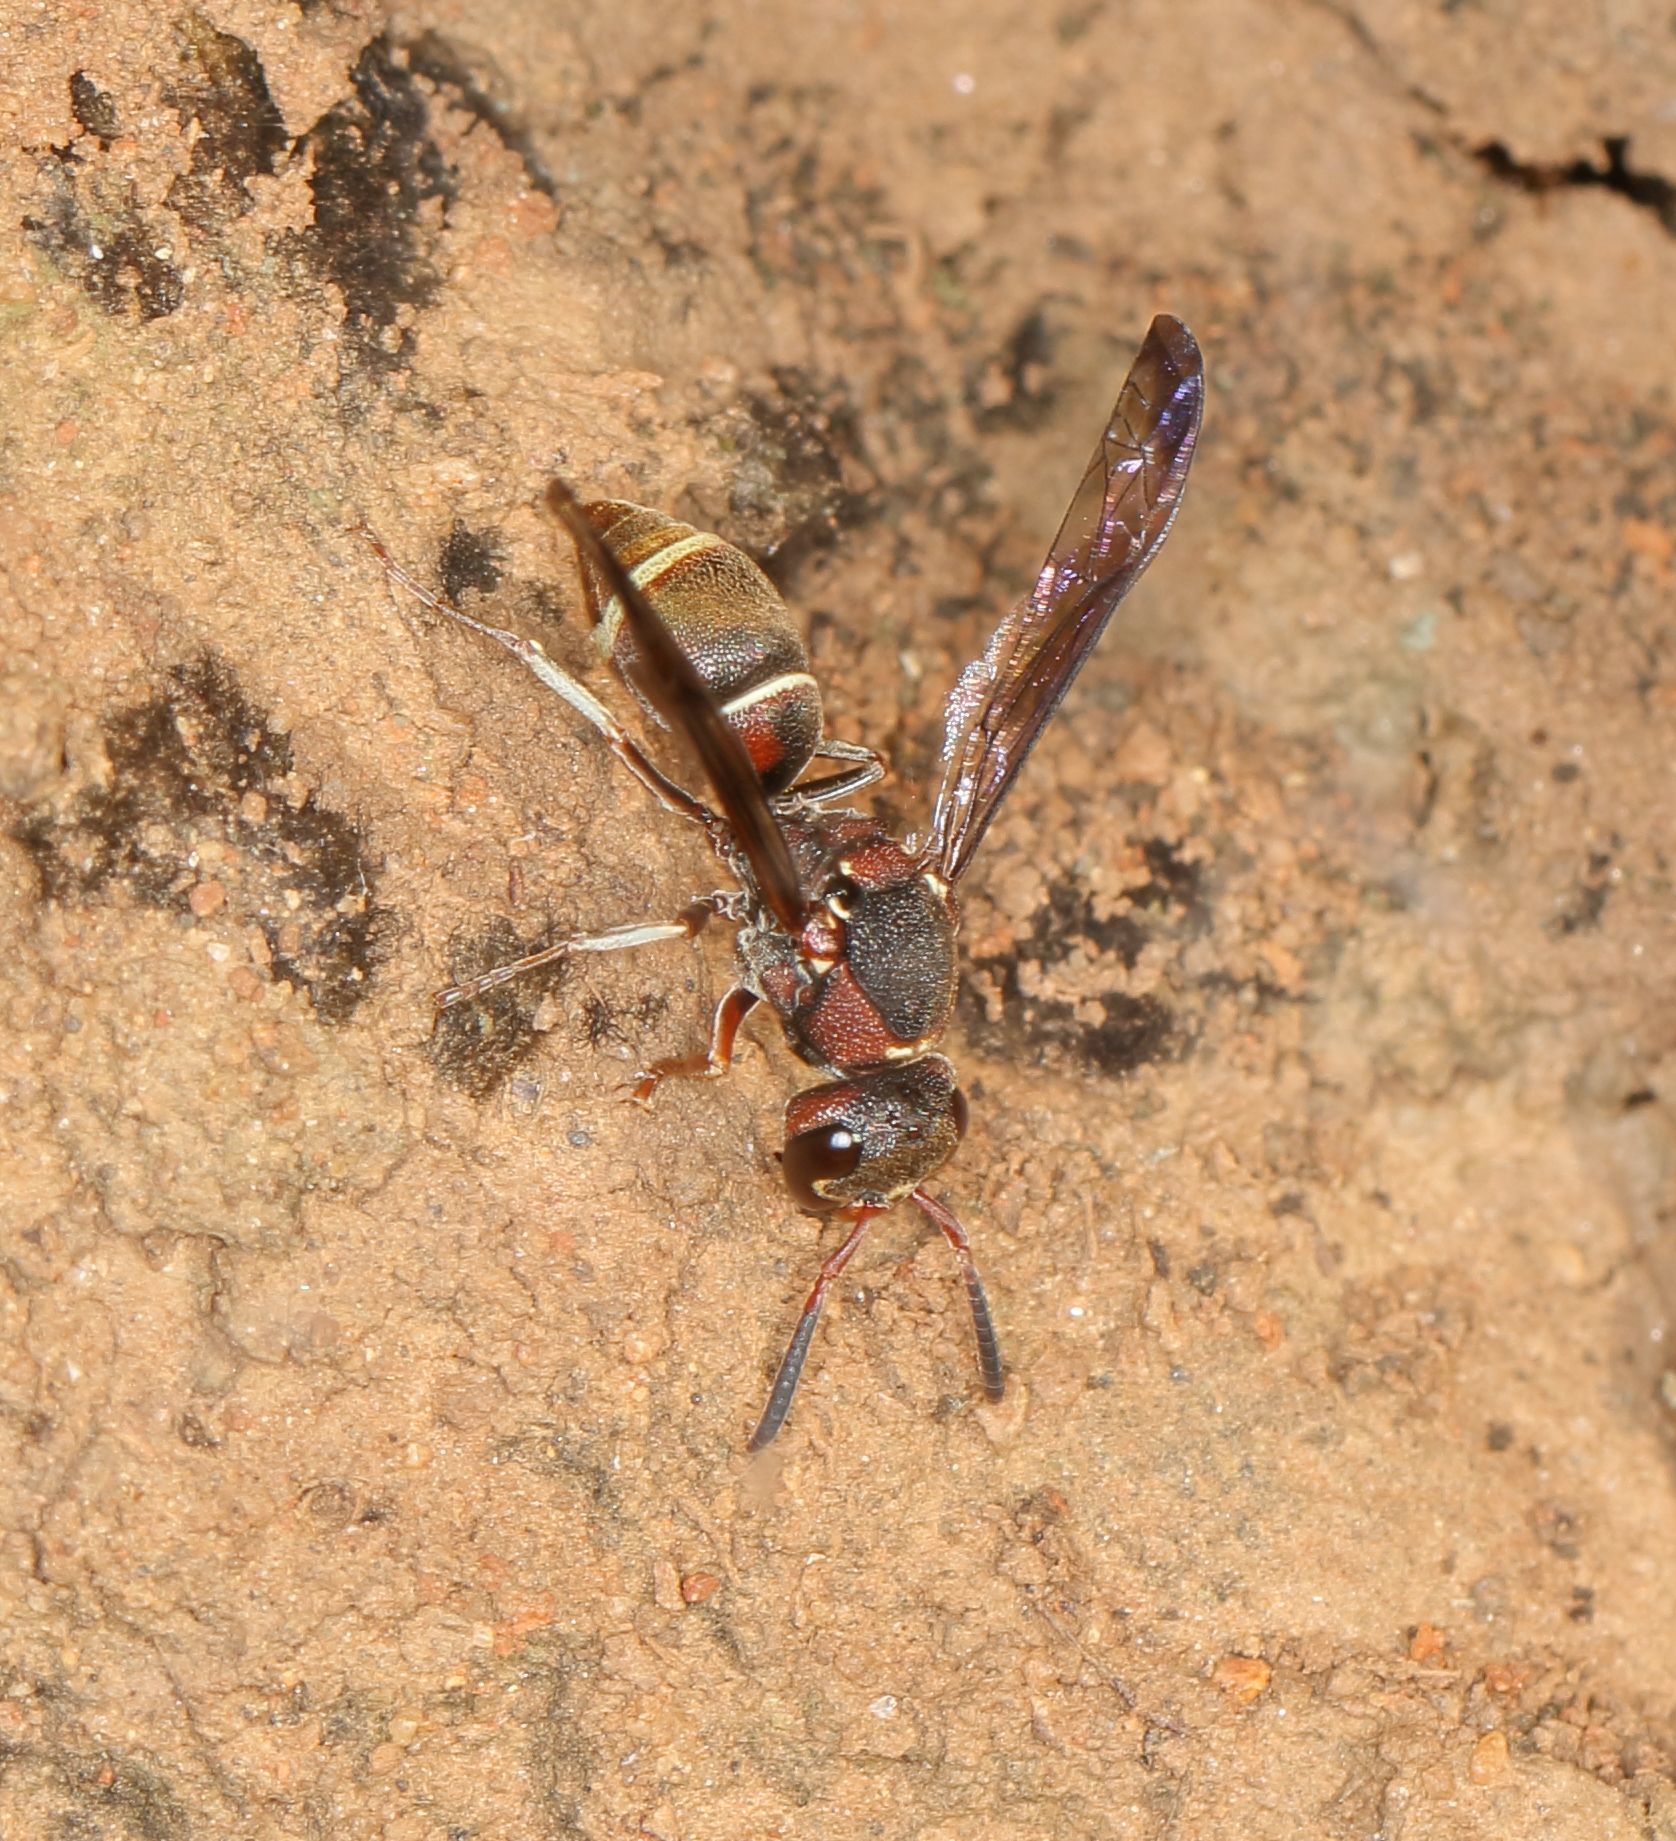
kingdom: Animalia
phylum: Arthropoda
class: Insecta
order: Hymenoptera
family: Eumenidae
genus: Antepipona
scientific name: Antepipona
